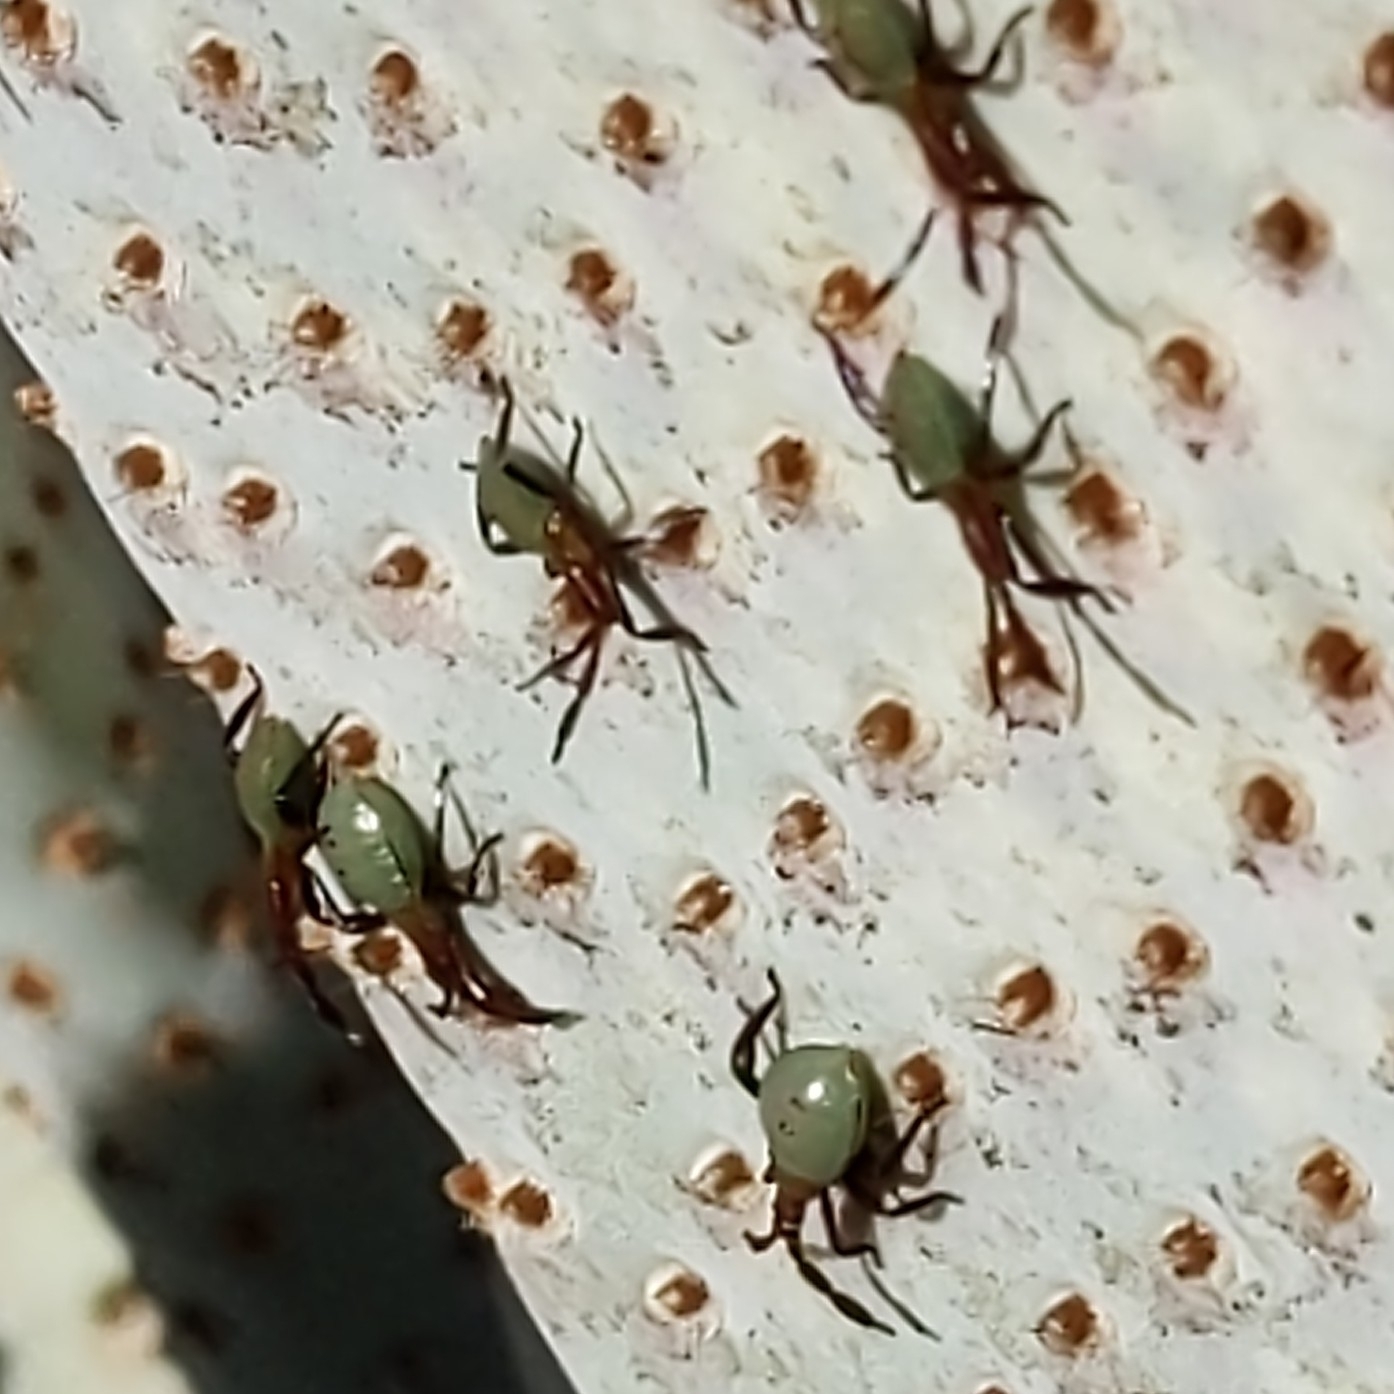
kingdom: Animalia
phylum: Arthropoda
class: Insecta
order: Hemiptera
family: Coreidae
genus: Chelinidea
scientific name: Chelinidea vittiger
